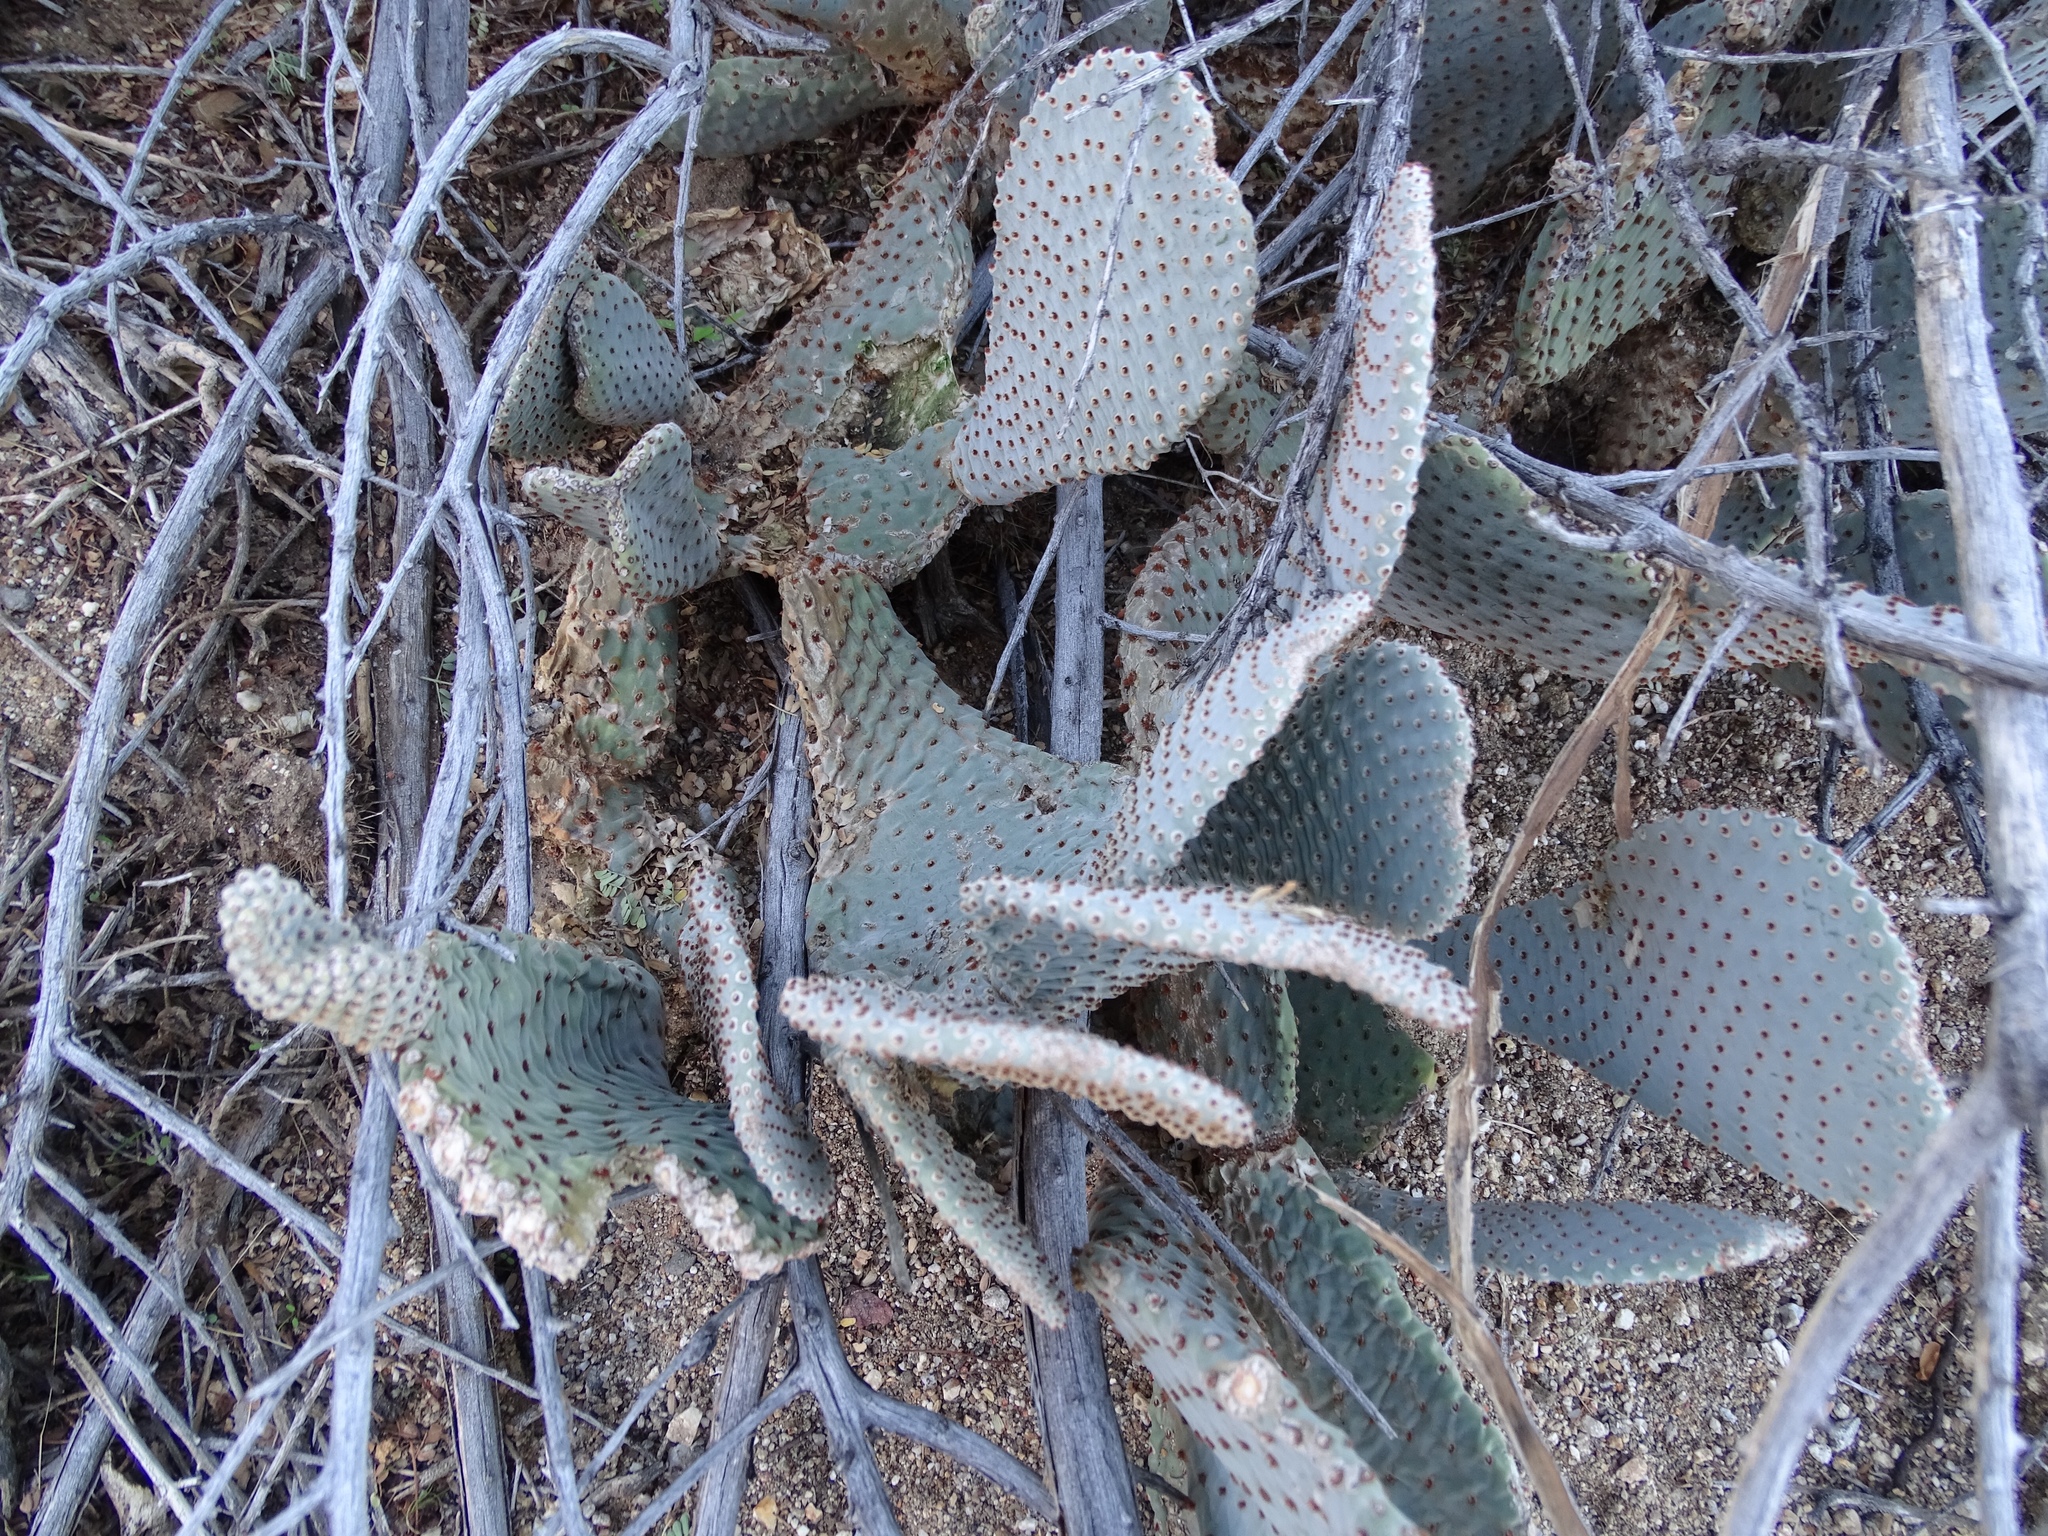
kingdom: Plantae
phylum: Tracheophyta
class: Magnoliopsida
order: Caryophyllales
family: Cactaceae
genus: Opuntia
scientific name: Opuntia basilaris
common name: Beavertail prickly-pear
